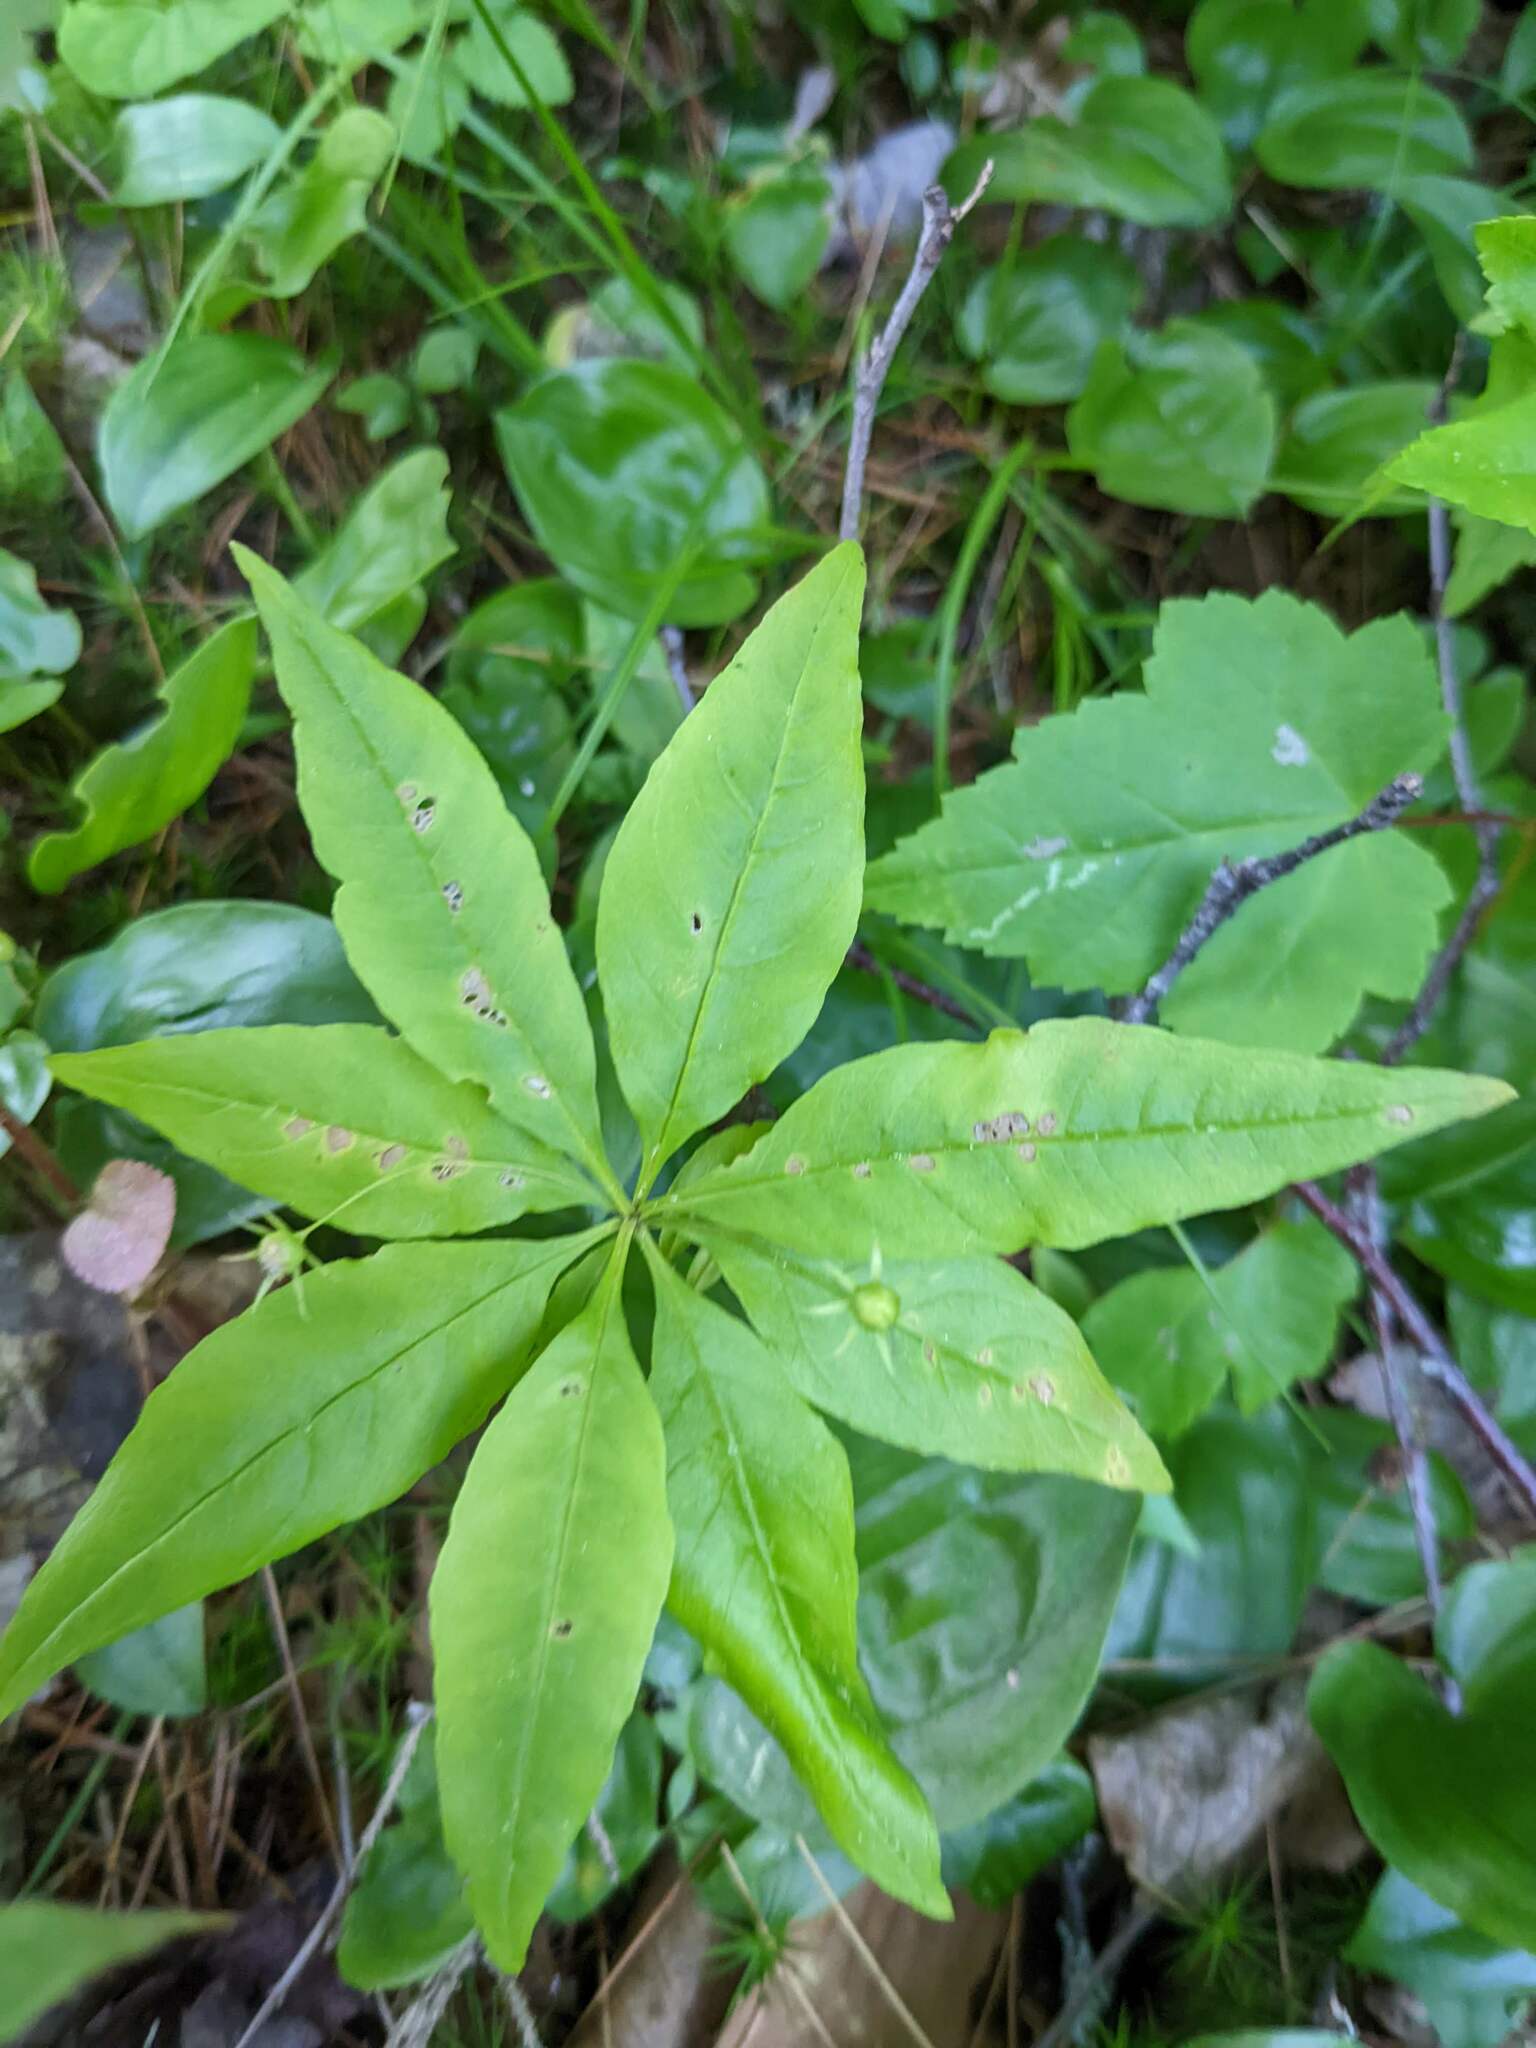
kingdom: Plantae
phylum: Tracheophyta
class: Magnoliopsida
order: Ericales
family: Primulaceae
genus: Lysimachia
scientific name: Lysimachia borealis
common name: American starflower
